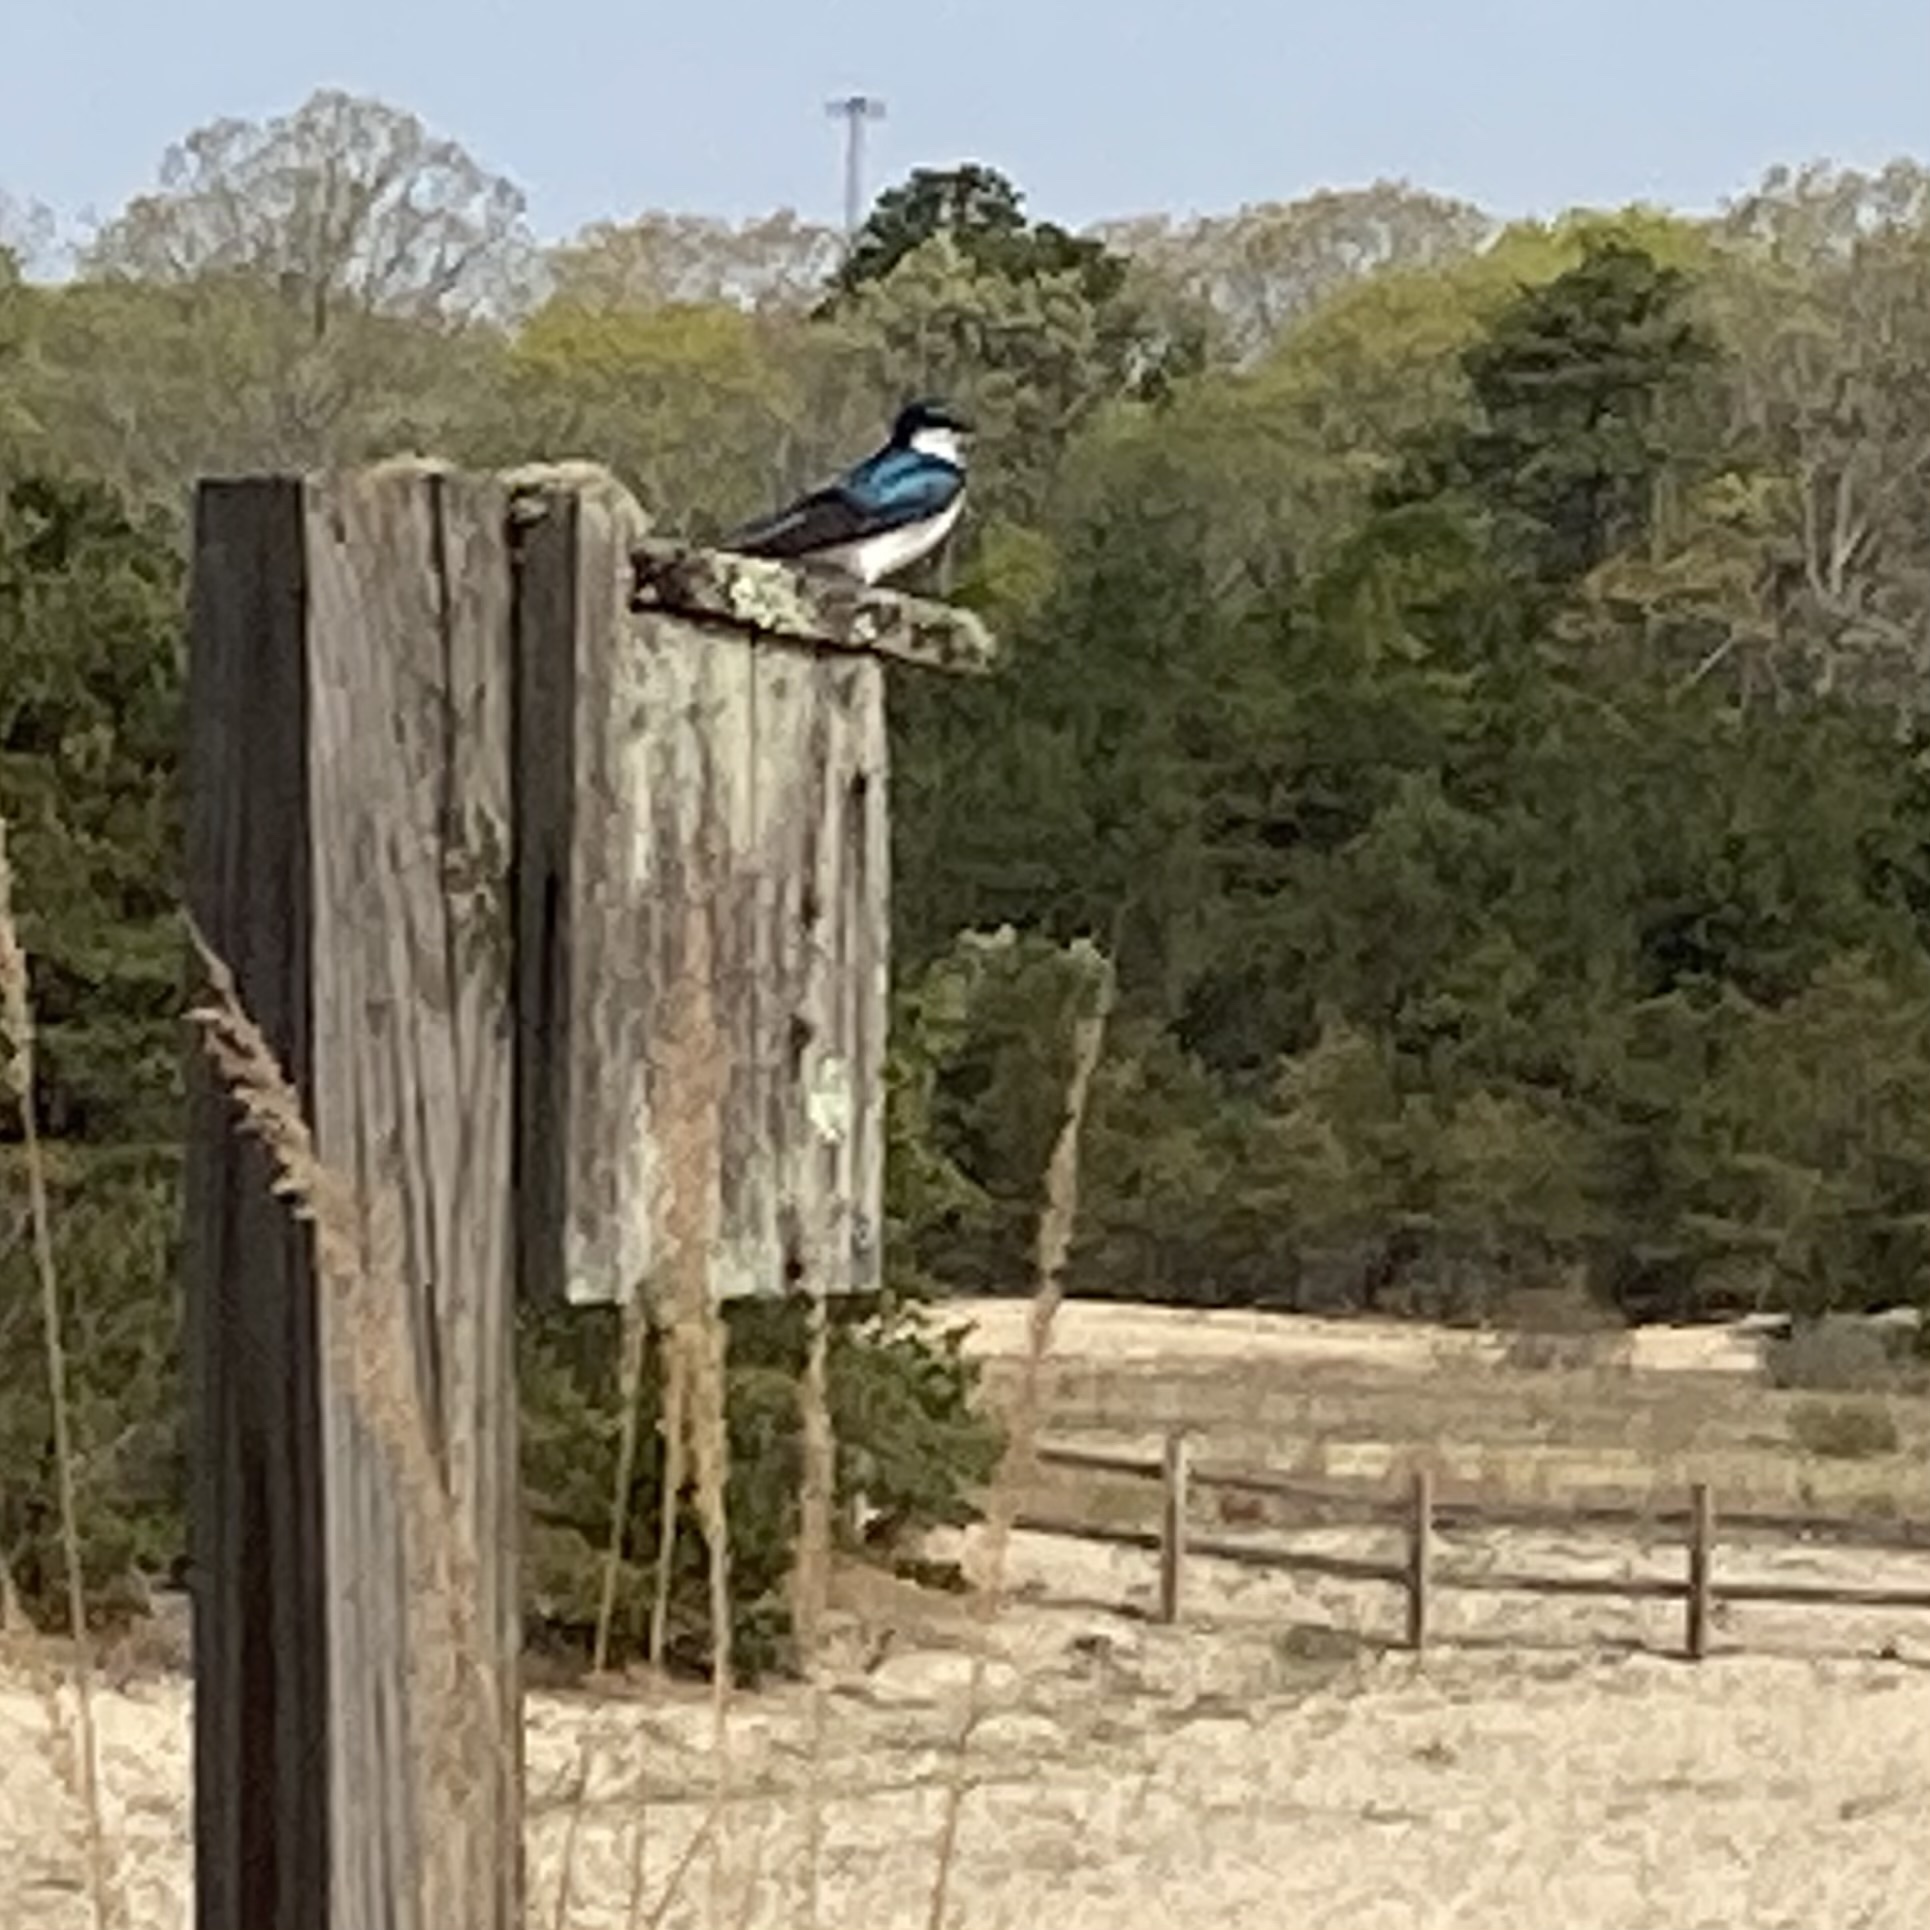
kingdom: Animalia
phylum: Chordata
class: Aves
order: Passeriformes
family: Hirundinidae
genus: Tachycineta
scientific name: Tachycineta bicolor
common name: Tree swallow
